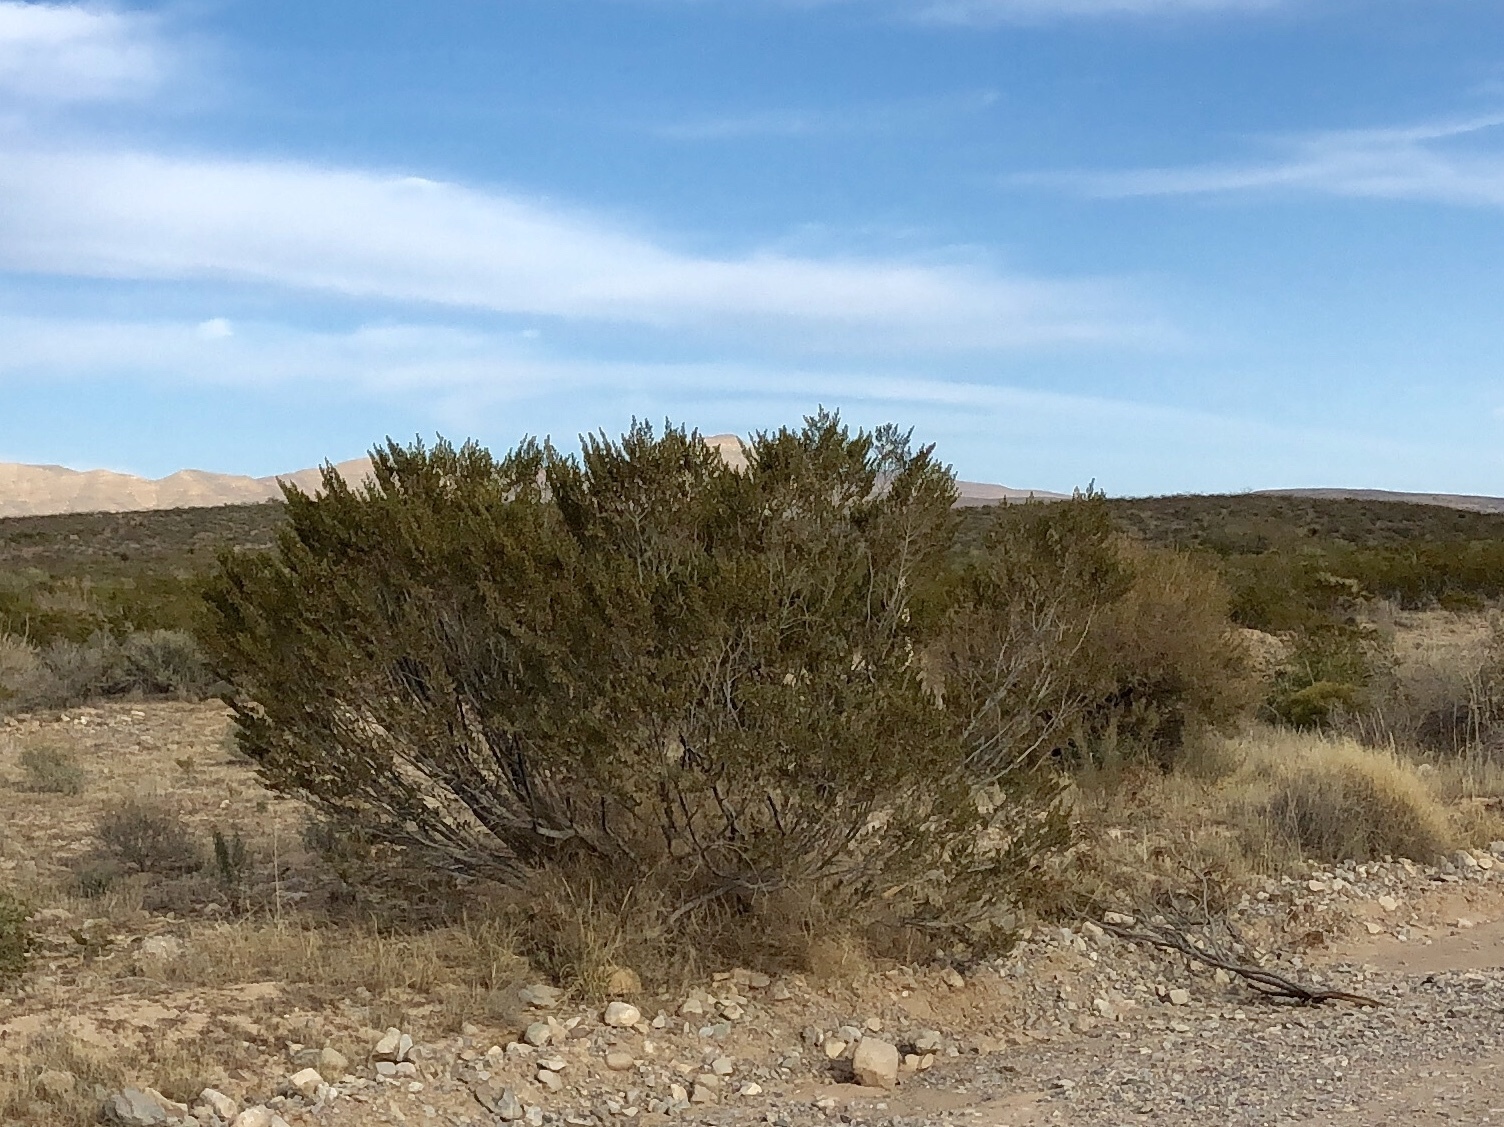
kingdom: Plantae
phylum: Tracheophyta
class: Magnoliopsida
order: Zygophyllales
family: Zygophyllaceae
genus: Larrea
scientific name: Larrea tridentata
